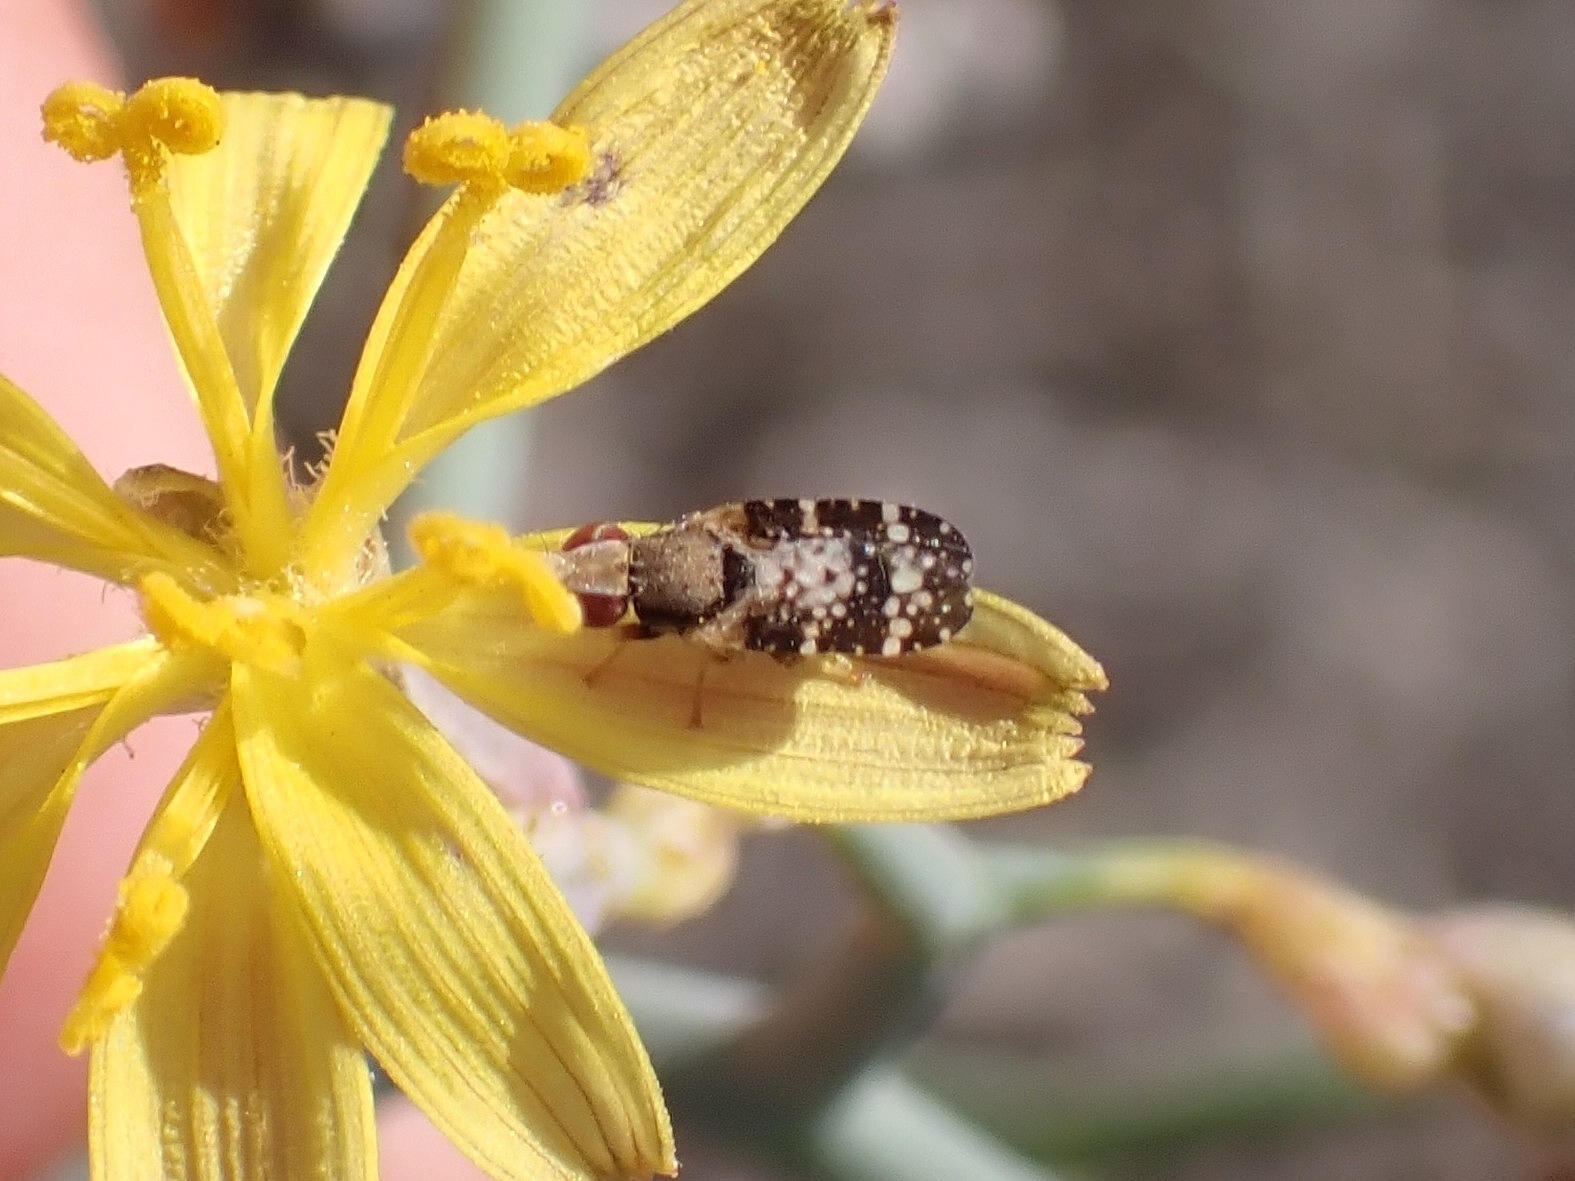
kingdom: Animalia
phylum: Arthropoda
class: Insecta
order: Diptera
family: Tephritidae
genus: Campiglossa
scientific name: Campiglossa martii
